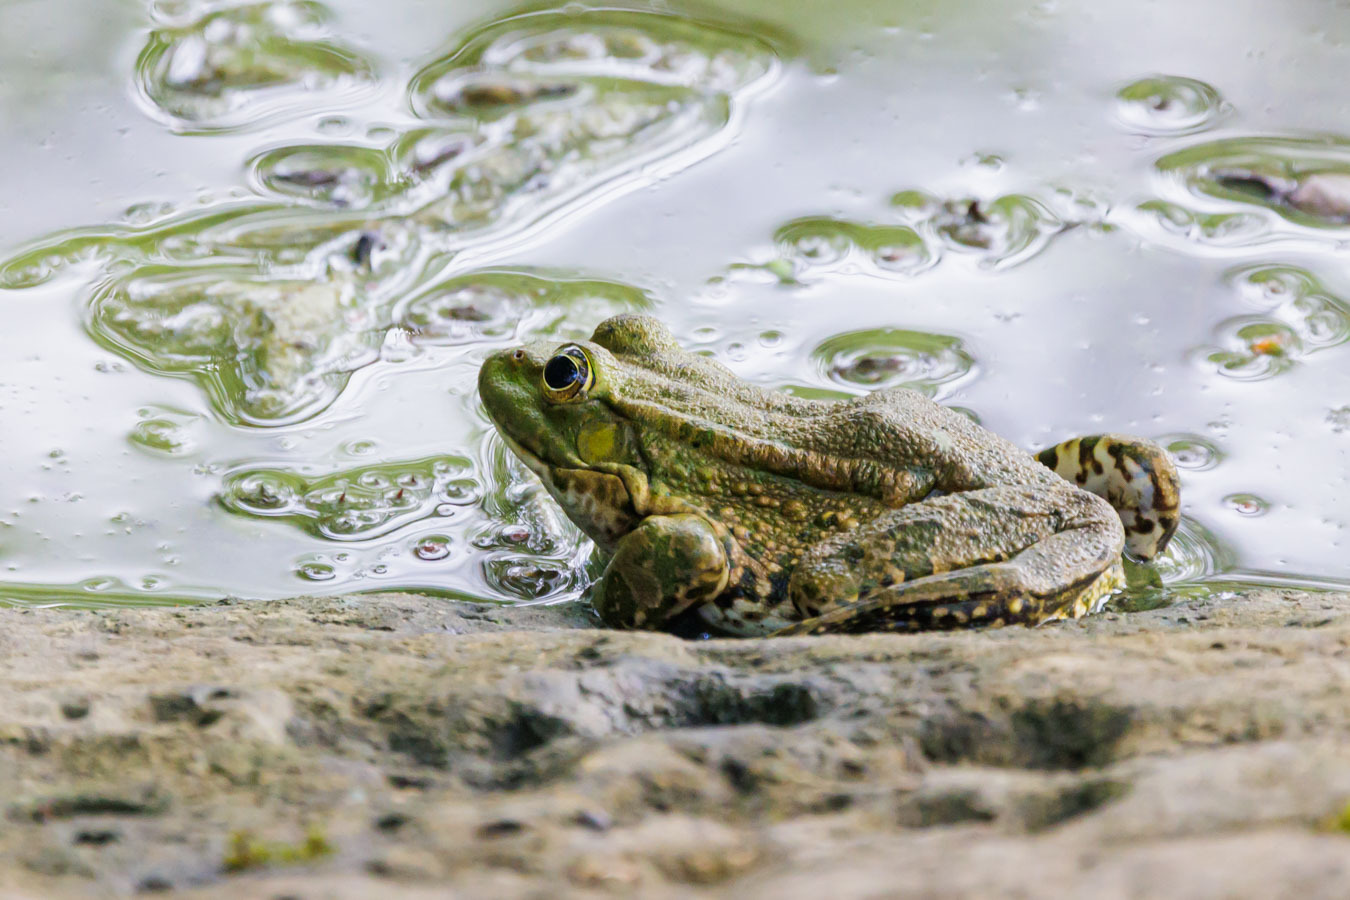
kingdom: Animalia
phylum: Chordata
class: Amphibia
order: Anura
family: Ranidae
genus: Pelophylax
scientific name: Pelophylax ridibundus
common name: Marsh frog
